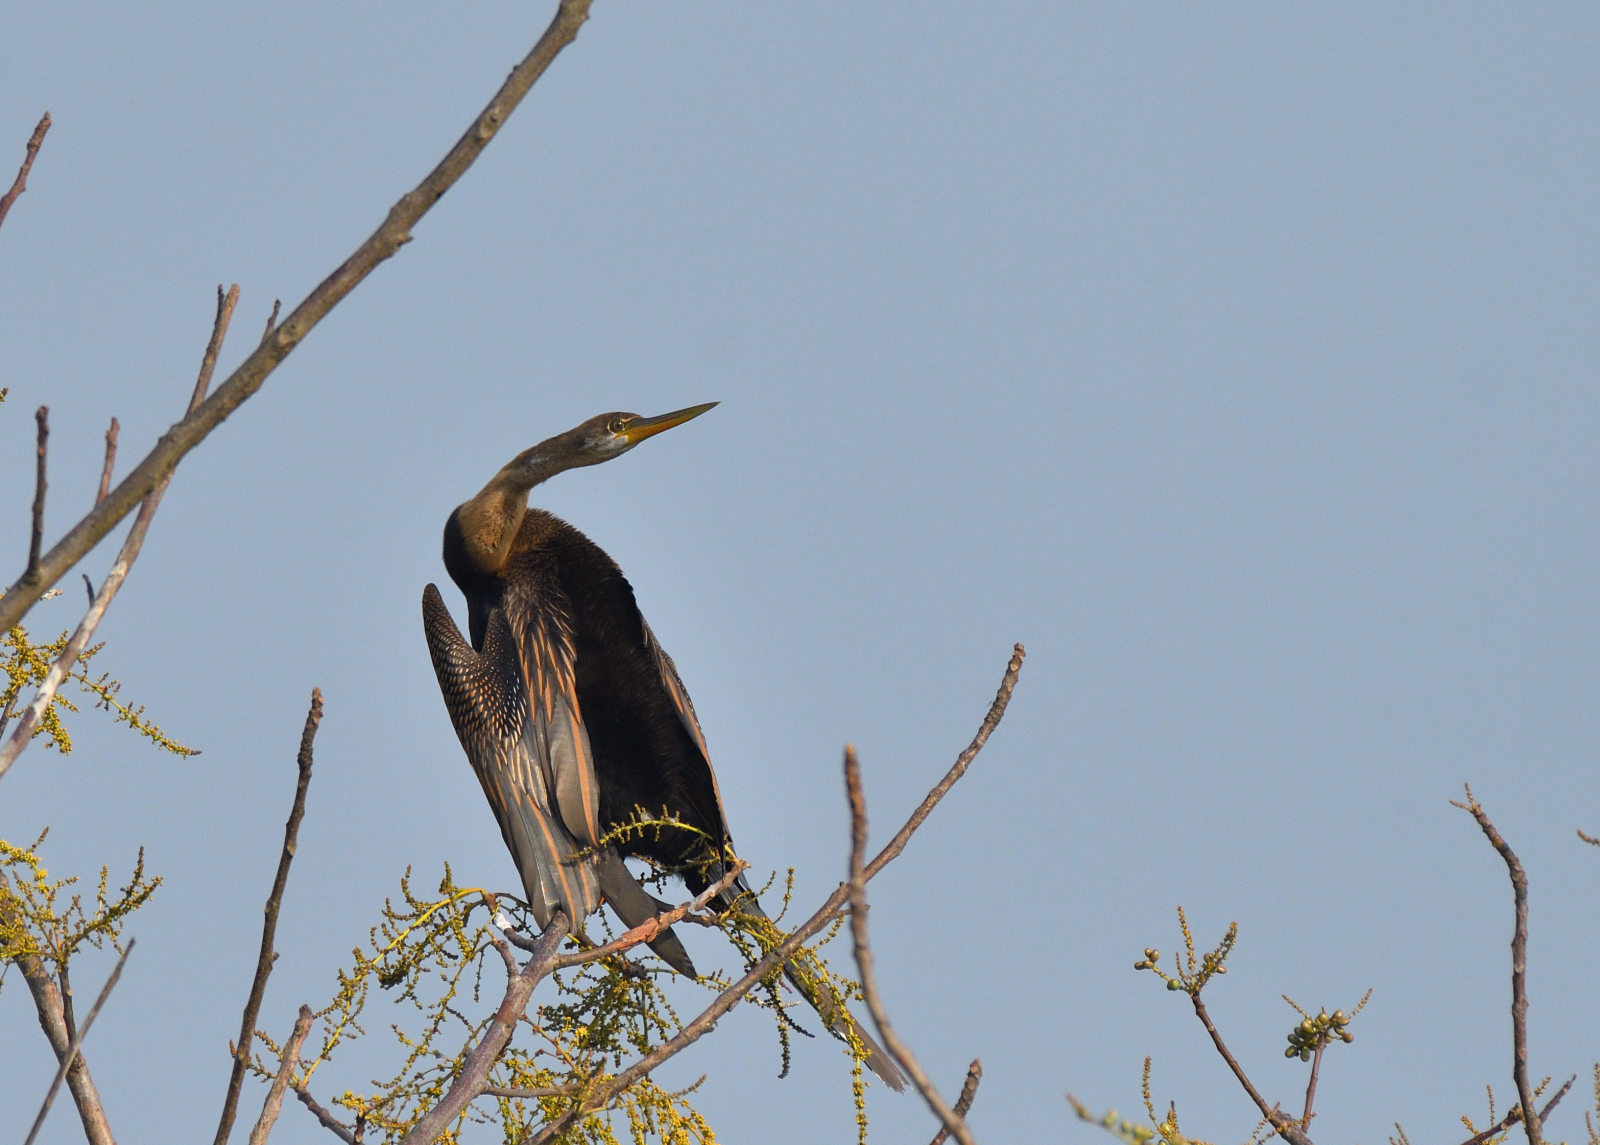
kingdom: Animalia
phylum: Chordata
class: Aves
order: Suliformes
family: Anhingidae
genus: Anhinga
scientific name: Anhinga melanogaster
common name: Oriental darter
